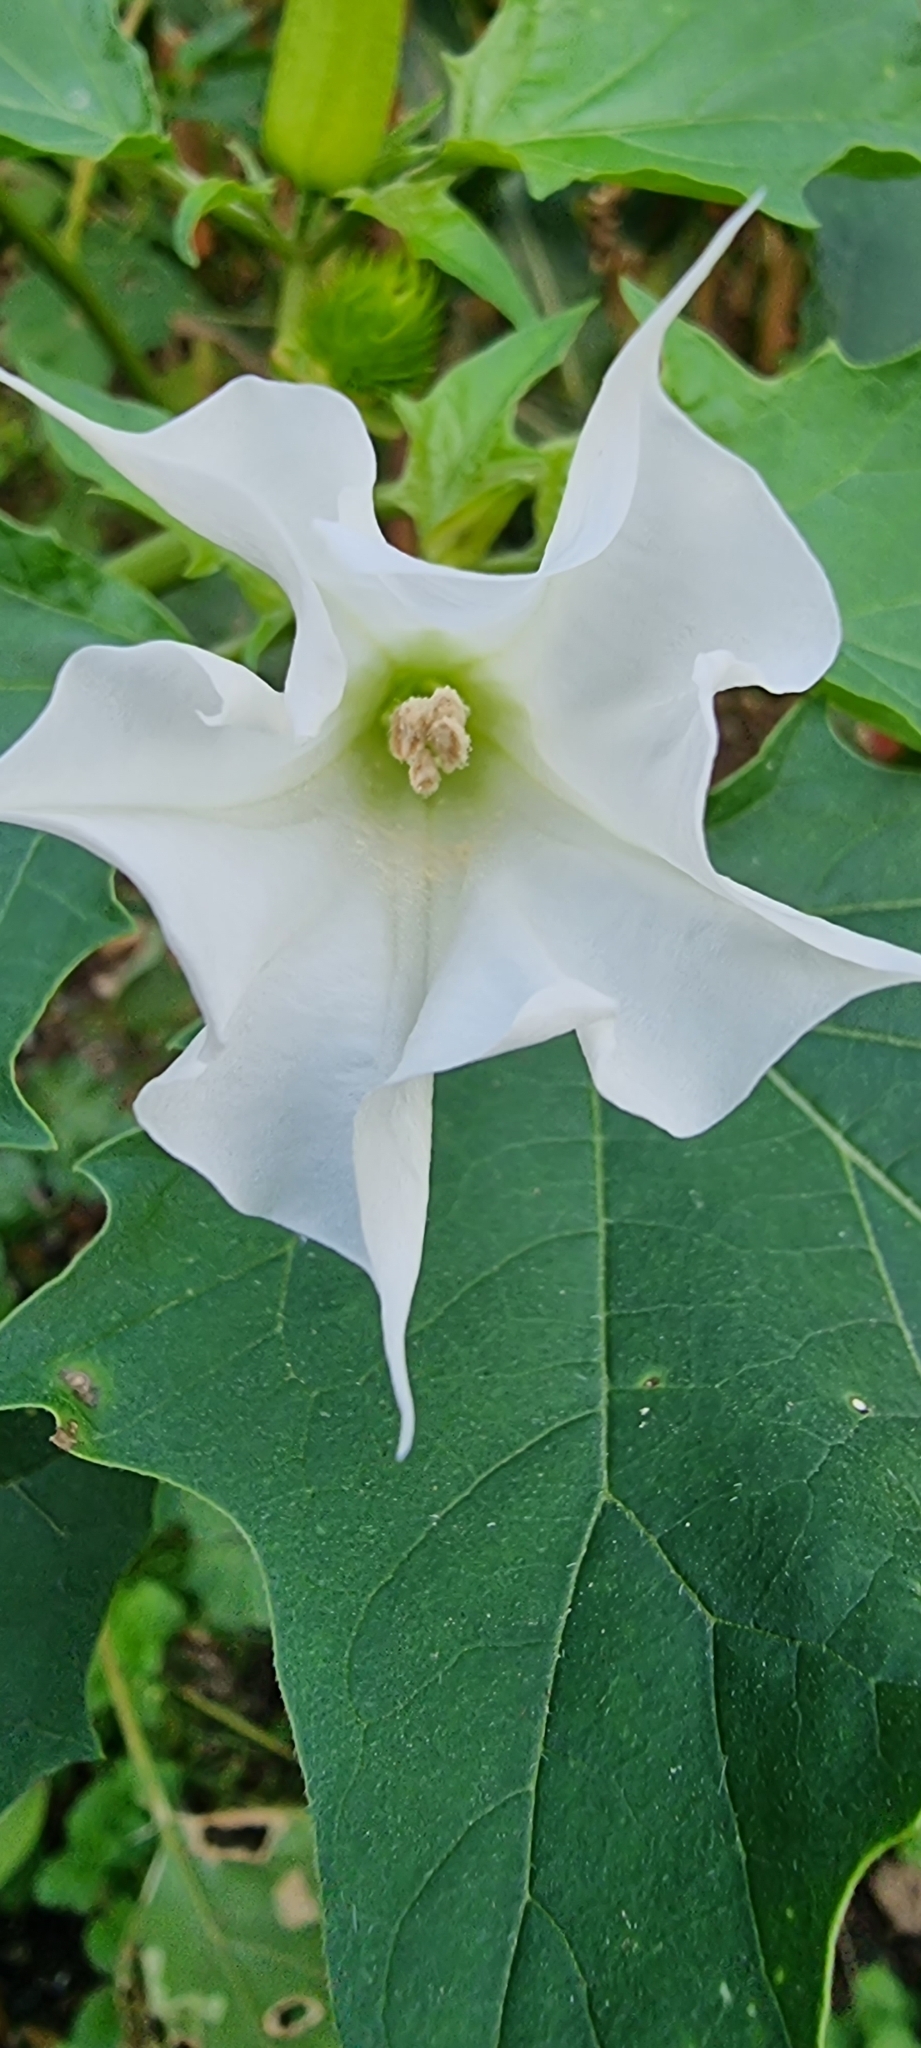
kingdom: Plantae
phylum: Tracheophyta
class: Magnoliopsida
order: Solanales
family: Solanaceae
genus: Datura
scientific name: Datura stramonium
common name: Thorn-apple
